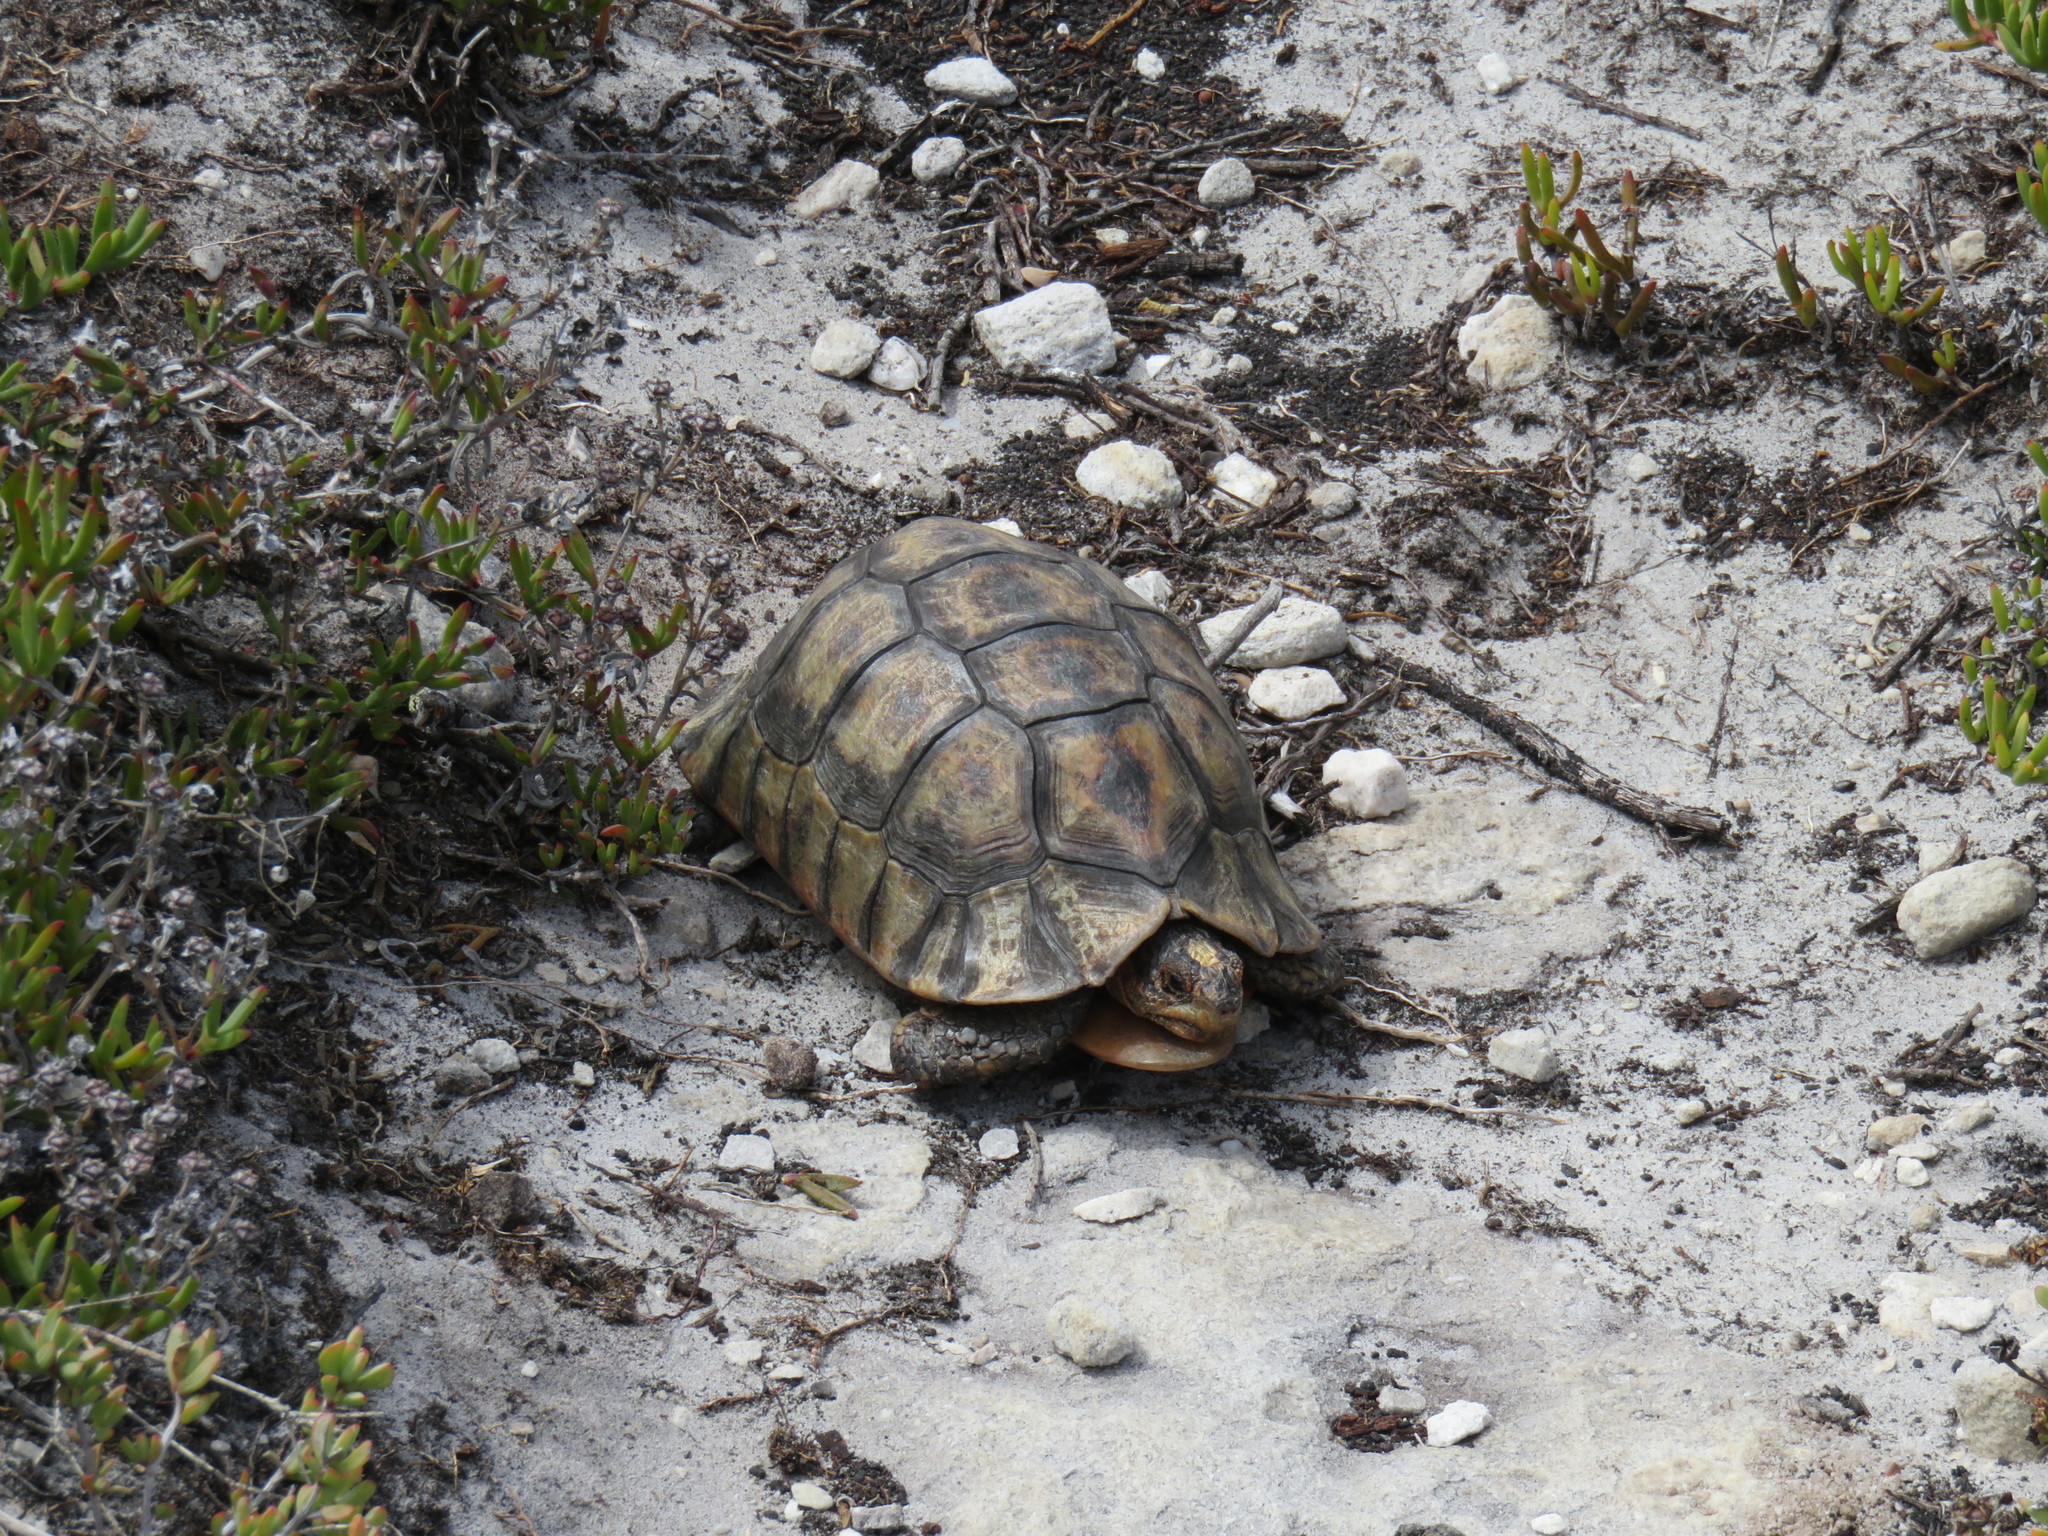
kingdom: Animalia
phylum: Chordata
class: Testudines
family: Testudinidae
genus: Chersina
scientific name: Chersina angulata
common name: South african bowsprit tortoise
